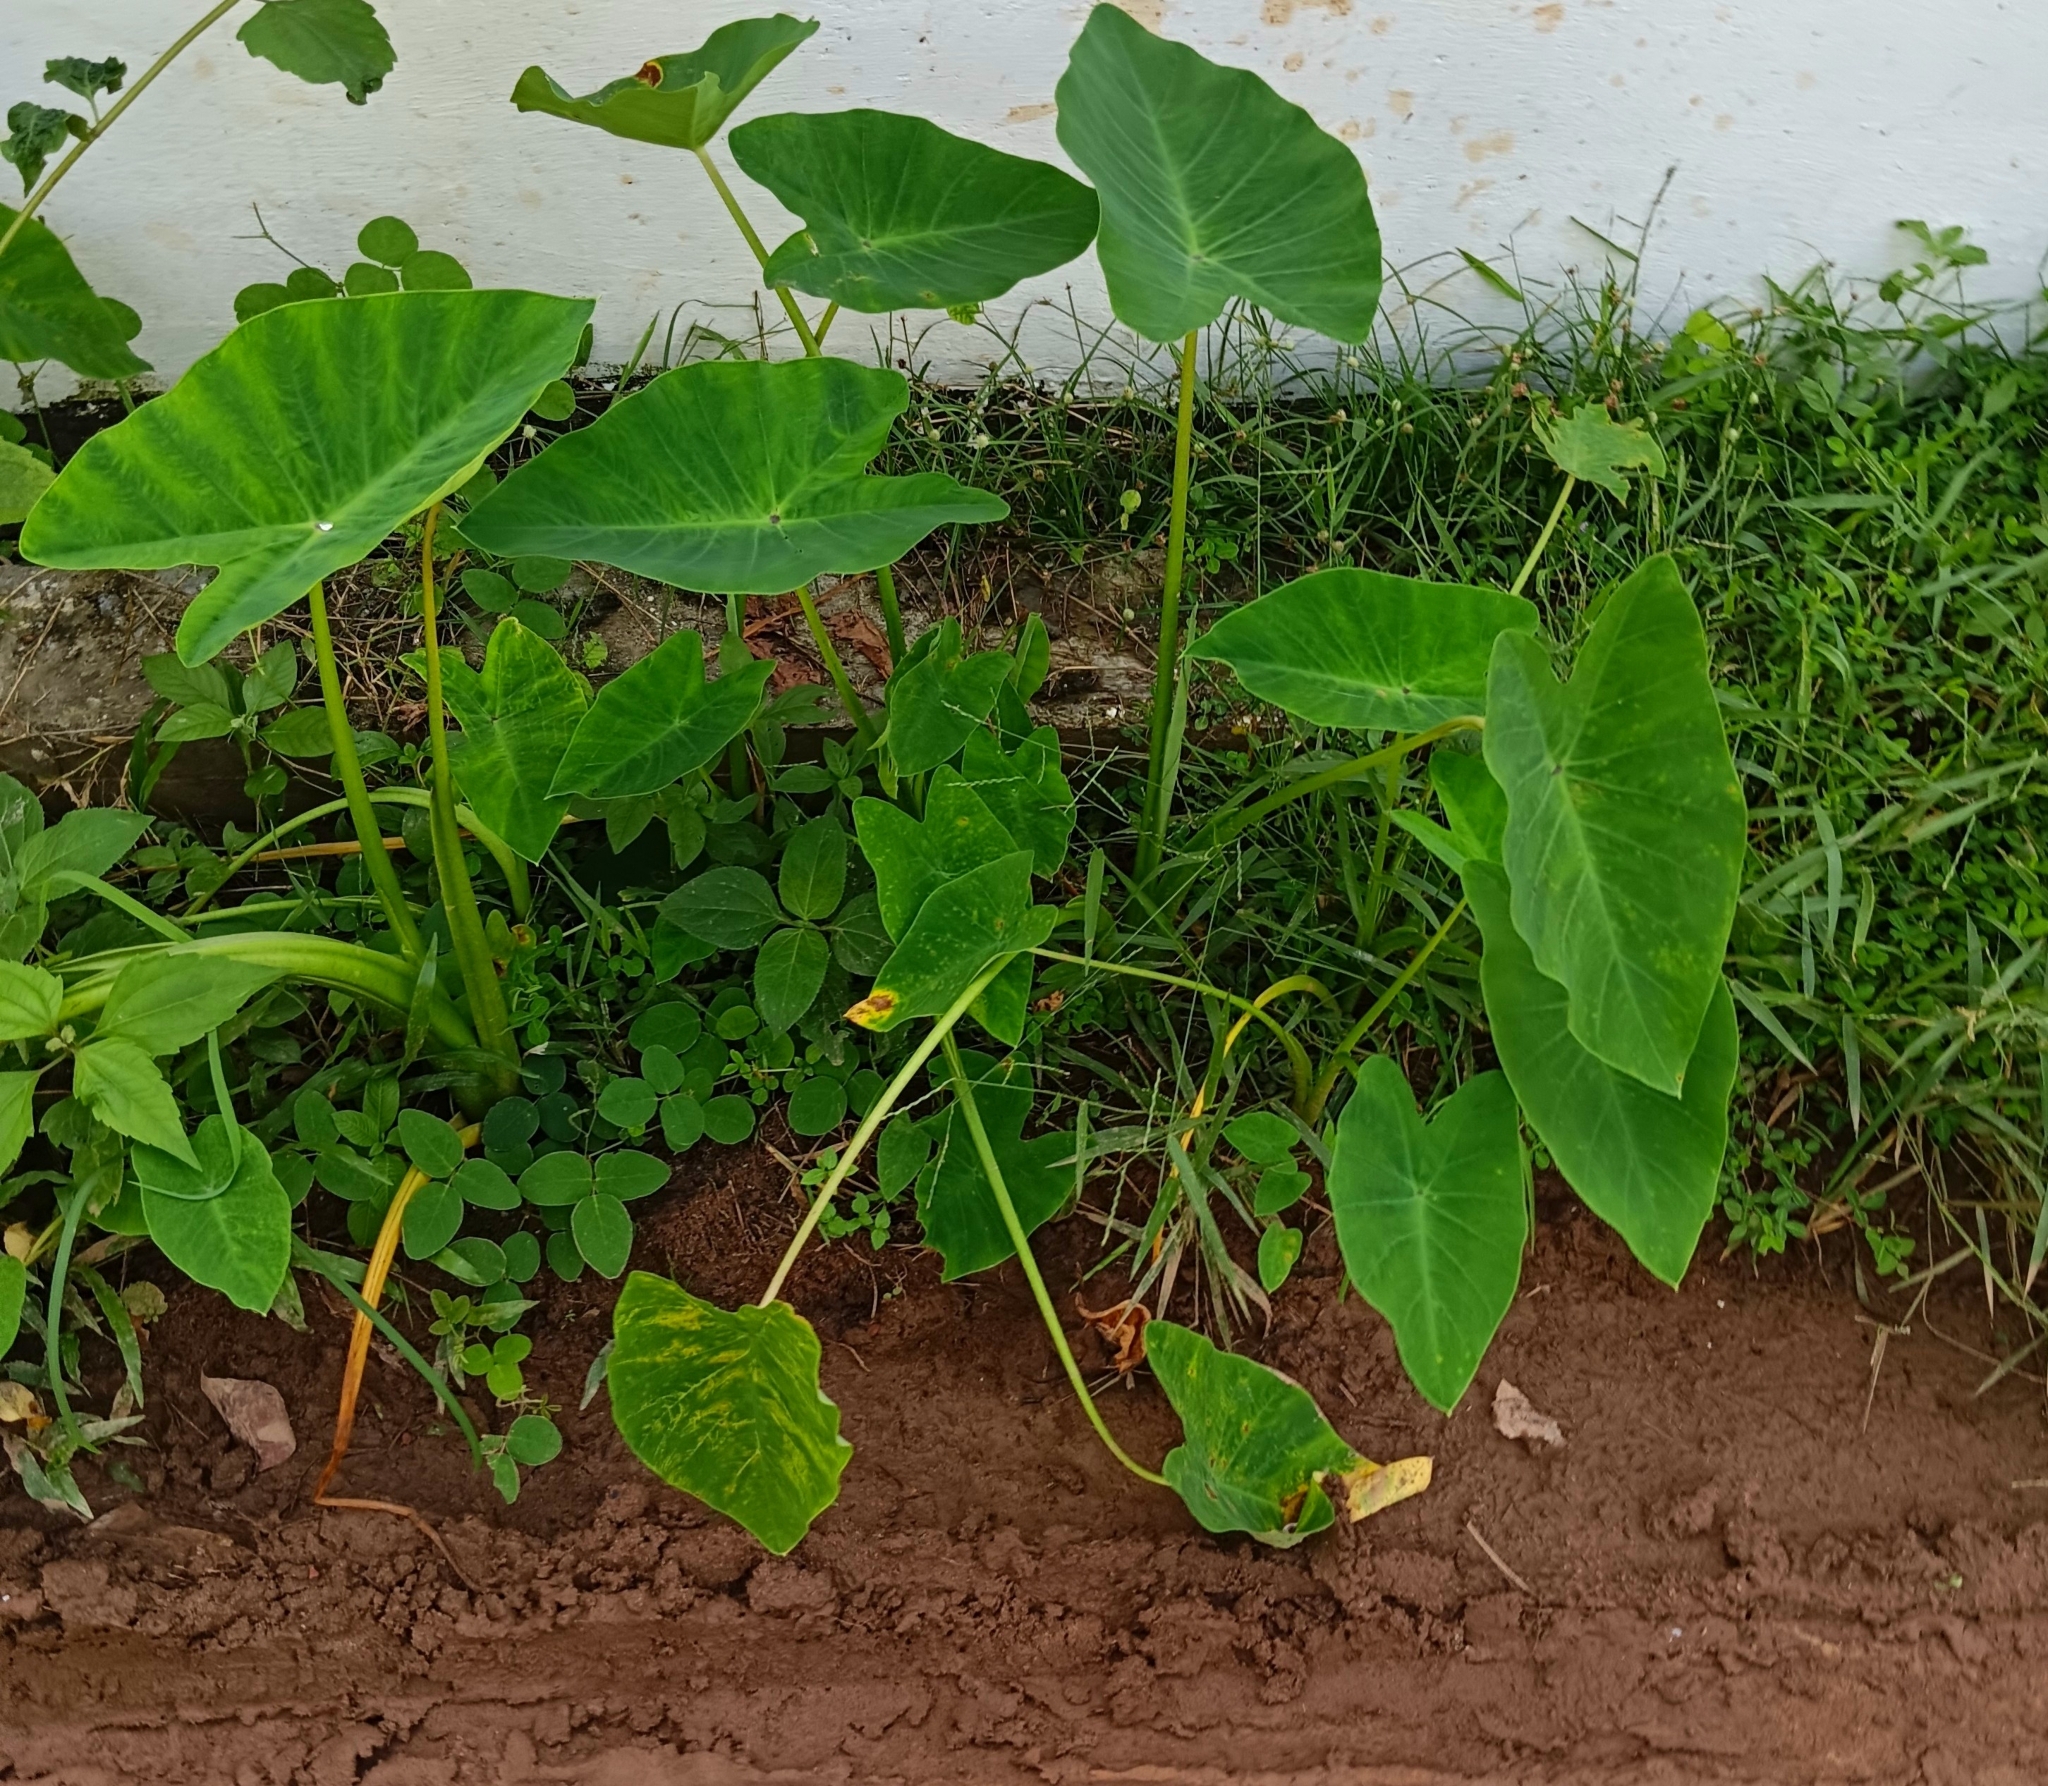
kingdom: Plantae
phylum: Tracheophyta
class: Liliopsida
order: Alismatales
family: Araceae
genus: Colocasia
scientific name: Colocasia esculenta
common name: Taro
